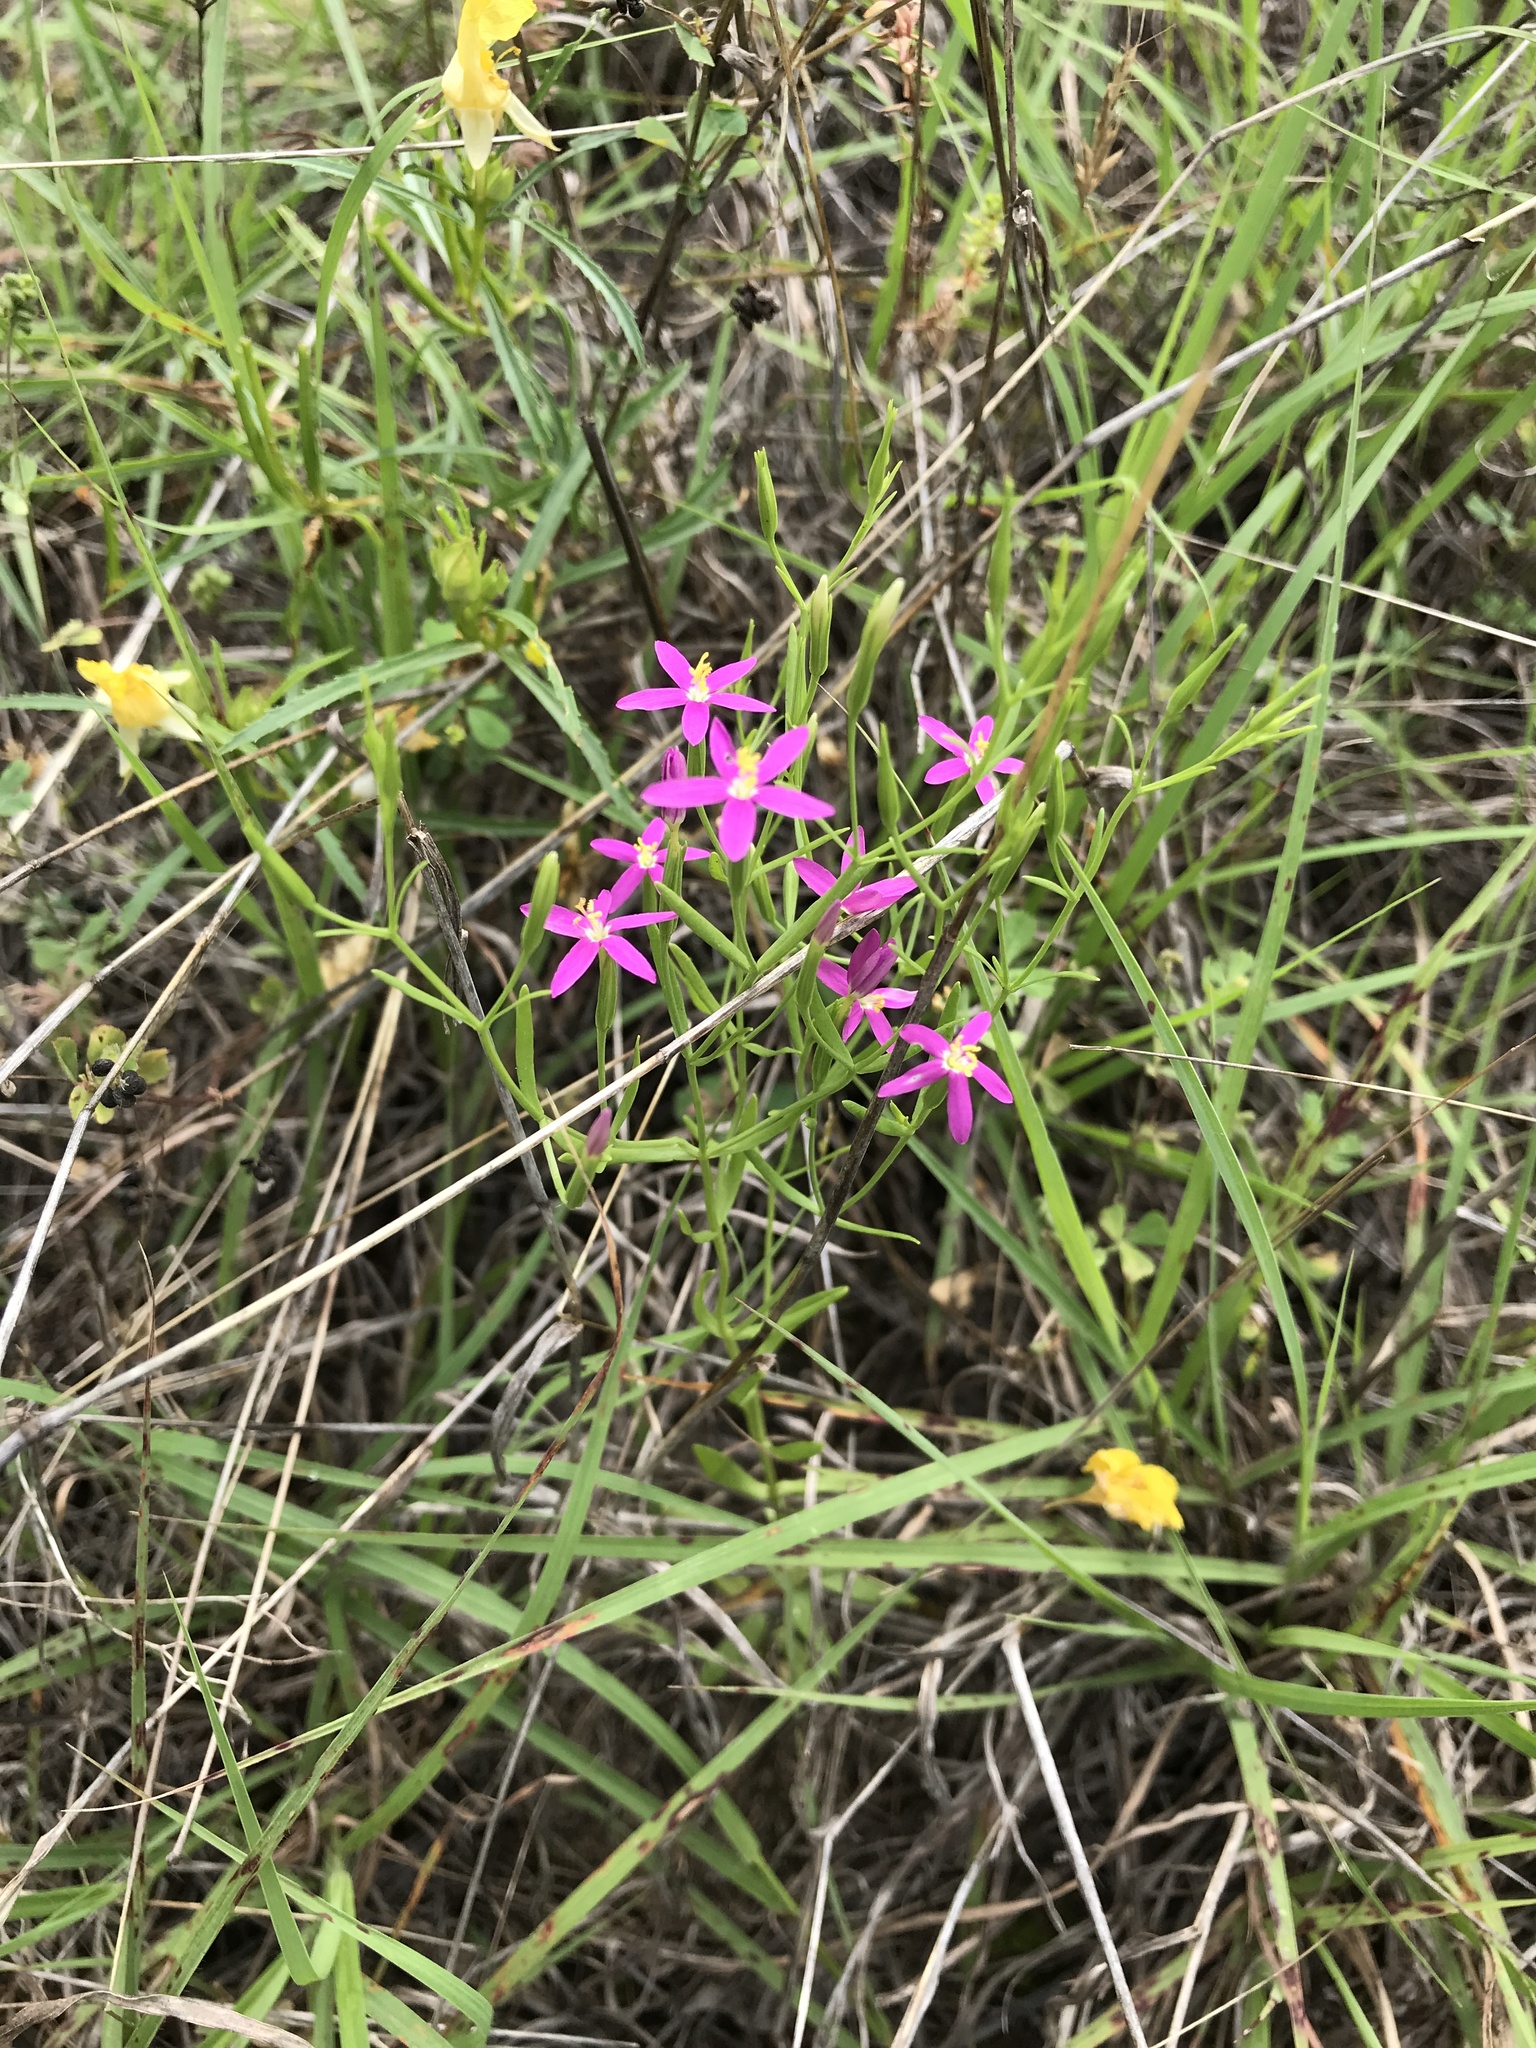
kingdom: Plantae
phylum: Tracheophyta
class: Magnoliopsida
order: Gentianales
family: Gentianaceae
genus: Zeltnera
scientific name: Zeltnera texensis
